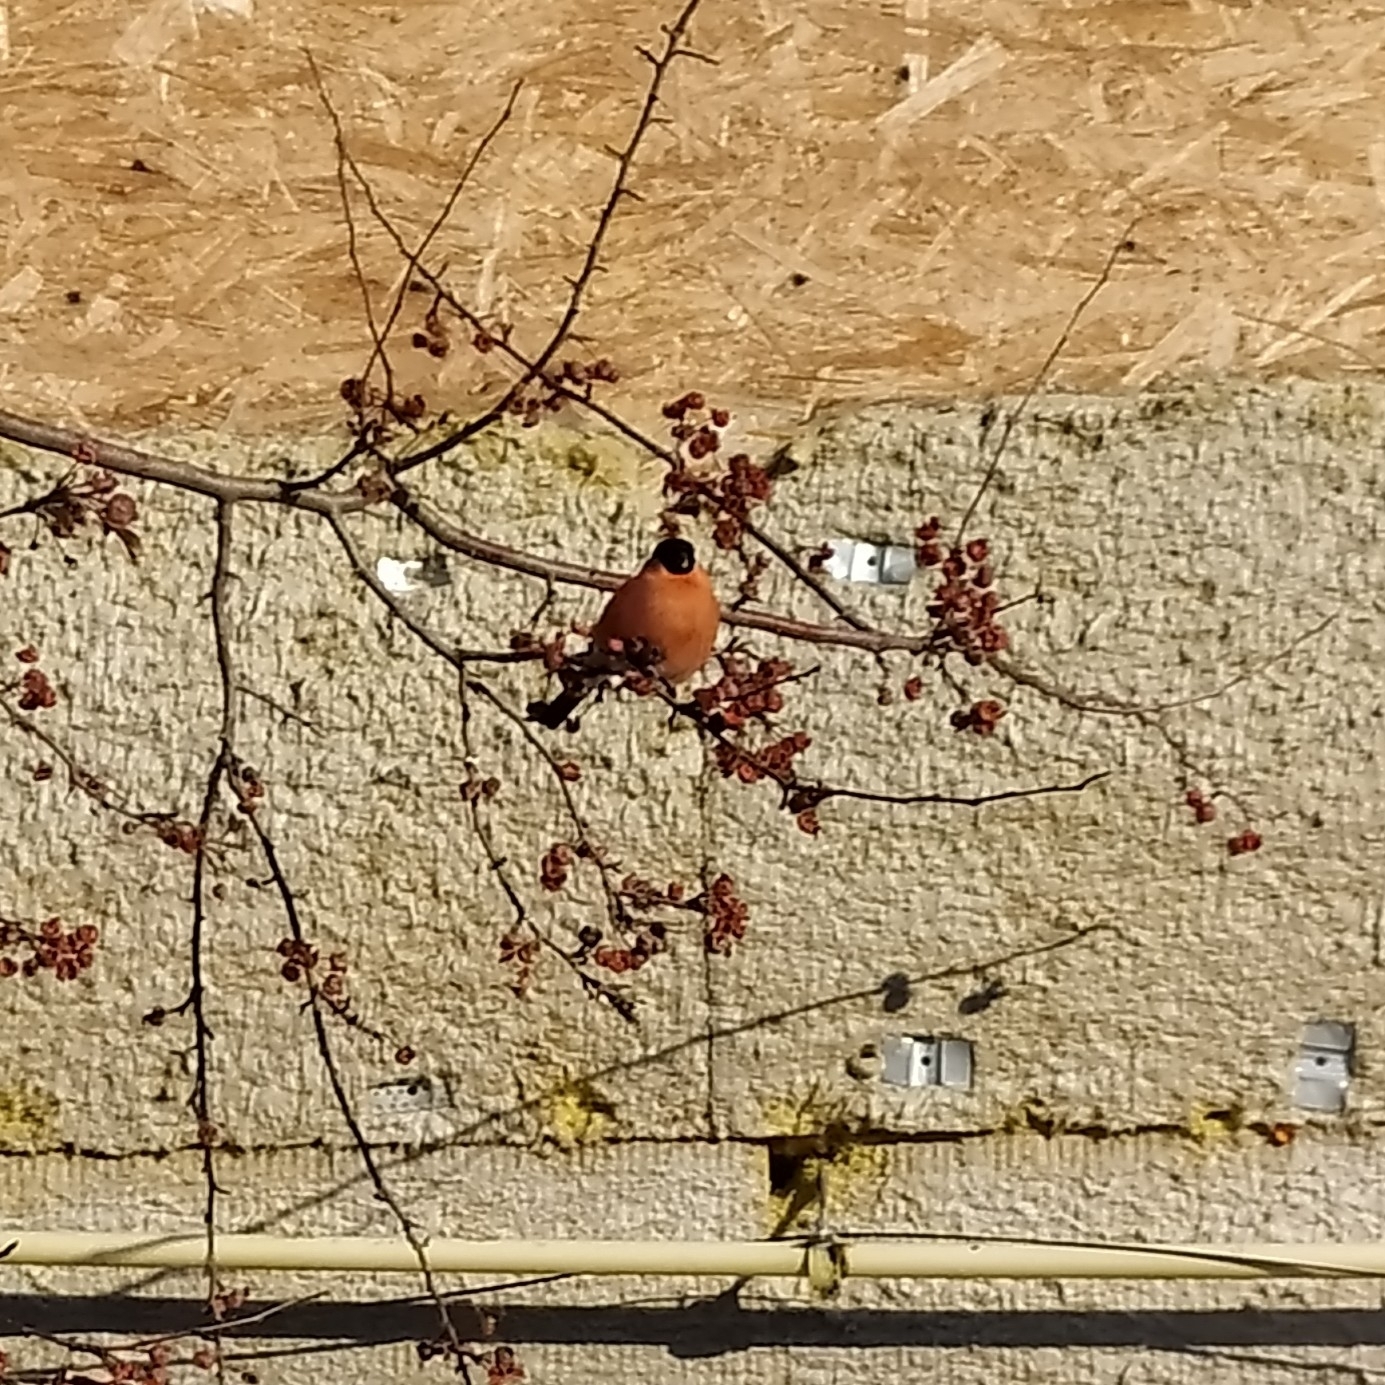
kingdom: Animalia
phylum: Chordata
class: Aves
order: Passeriformes
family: Fringillidae
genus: Pyrrhula
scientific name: Pyrrhula pyrrhula
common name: Eurasian bullfinch
